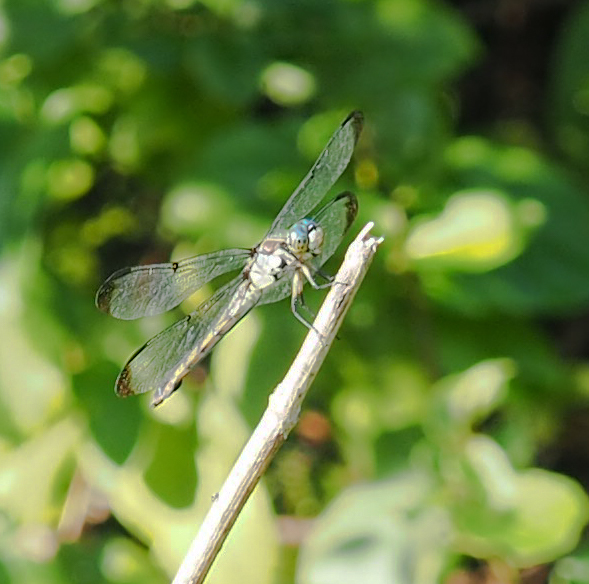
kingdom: Animalia
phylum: Arthropoda
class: Insecta
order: Odonata
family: Libellulidae
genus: Libellula
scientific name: Libellula vibrans
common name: Great blue skimmer
